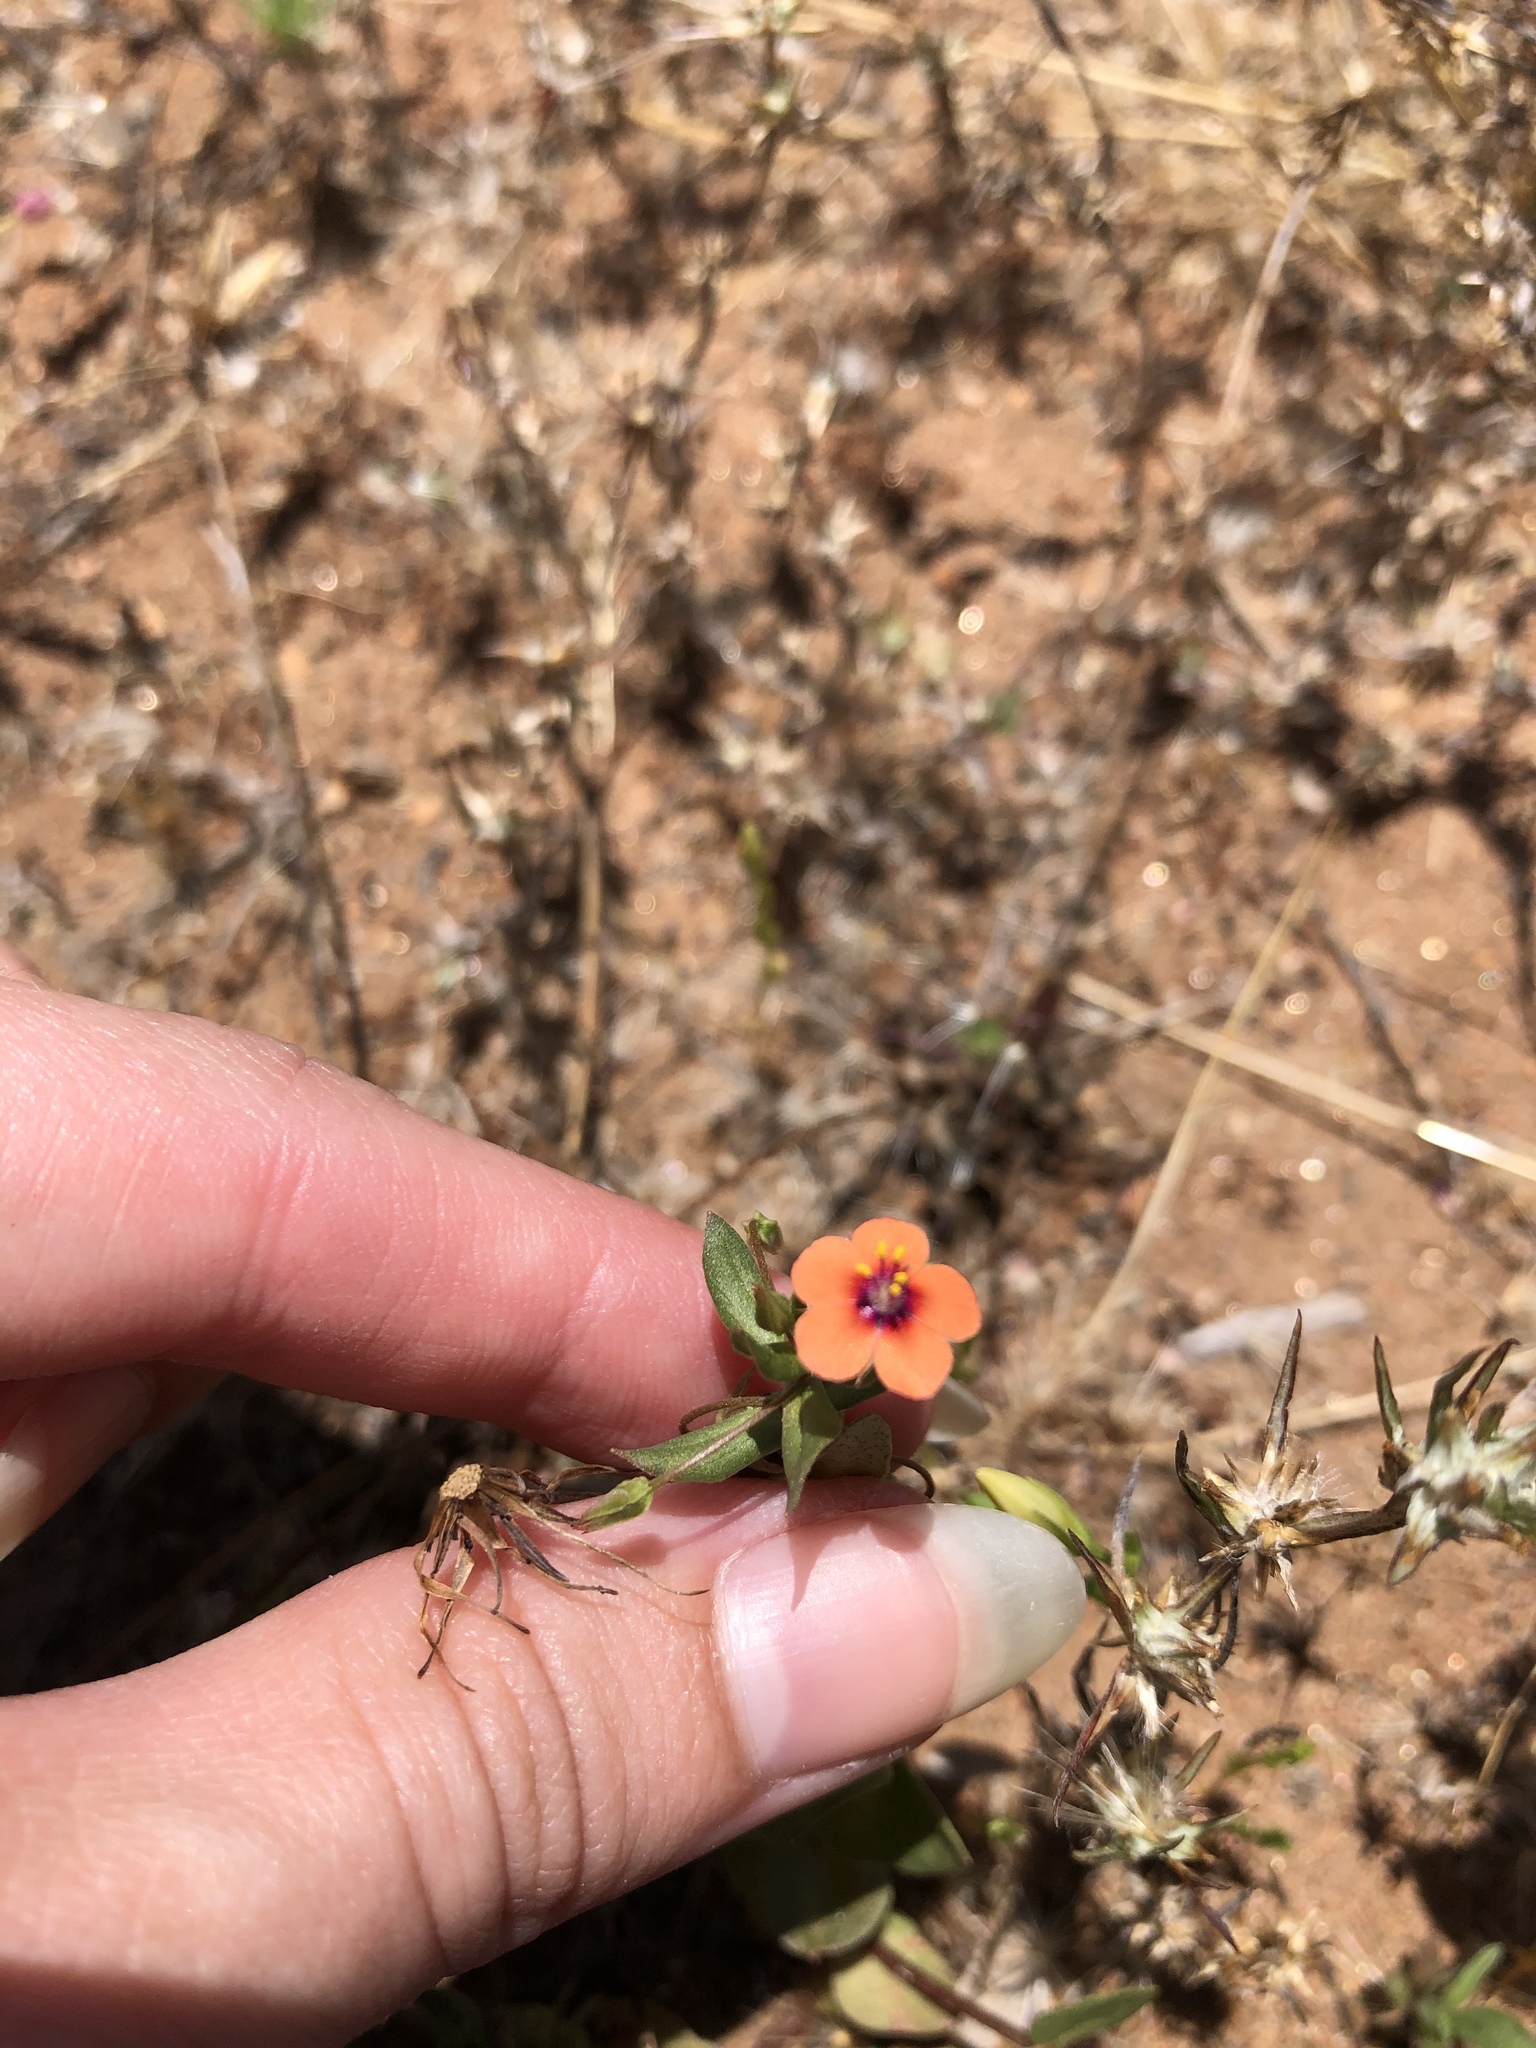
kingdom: Plantae
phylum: Tracheophyta
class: Magnoliopsida
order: Ericales
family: Primulaceae
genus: Lysimachia
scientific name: Lysimachia arvensis
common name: Scarlet pimpernel
